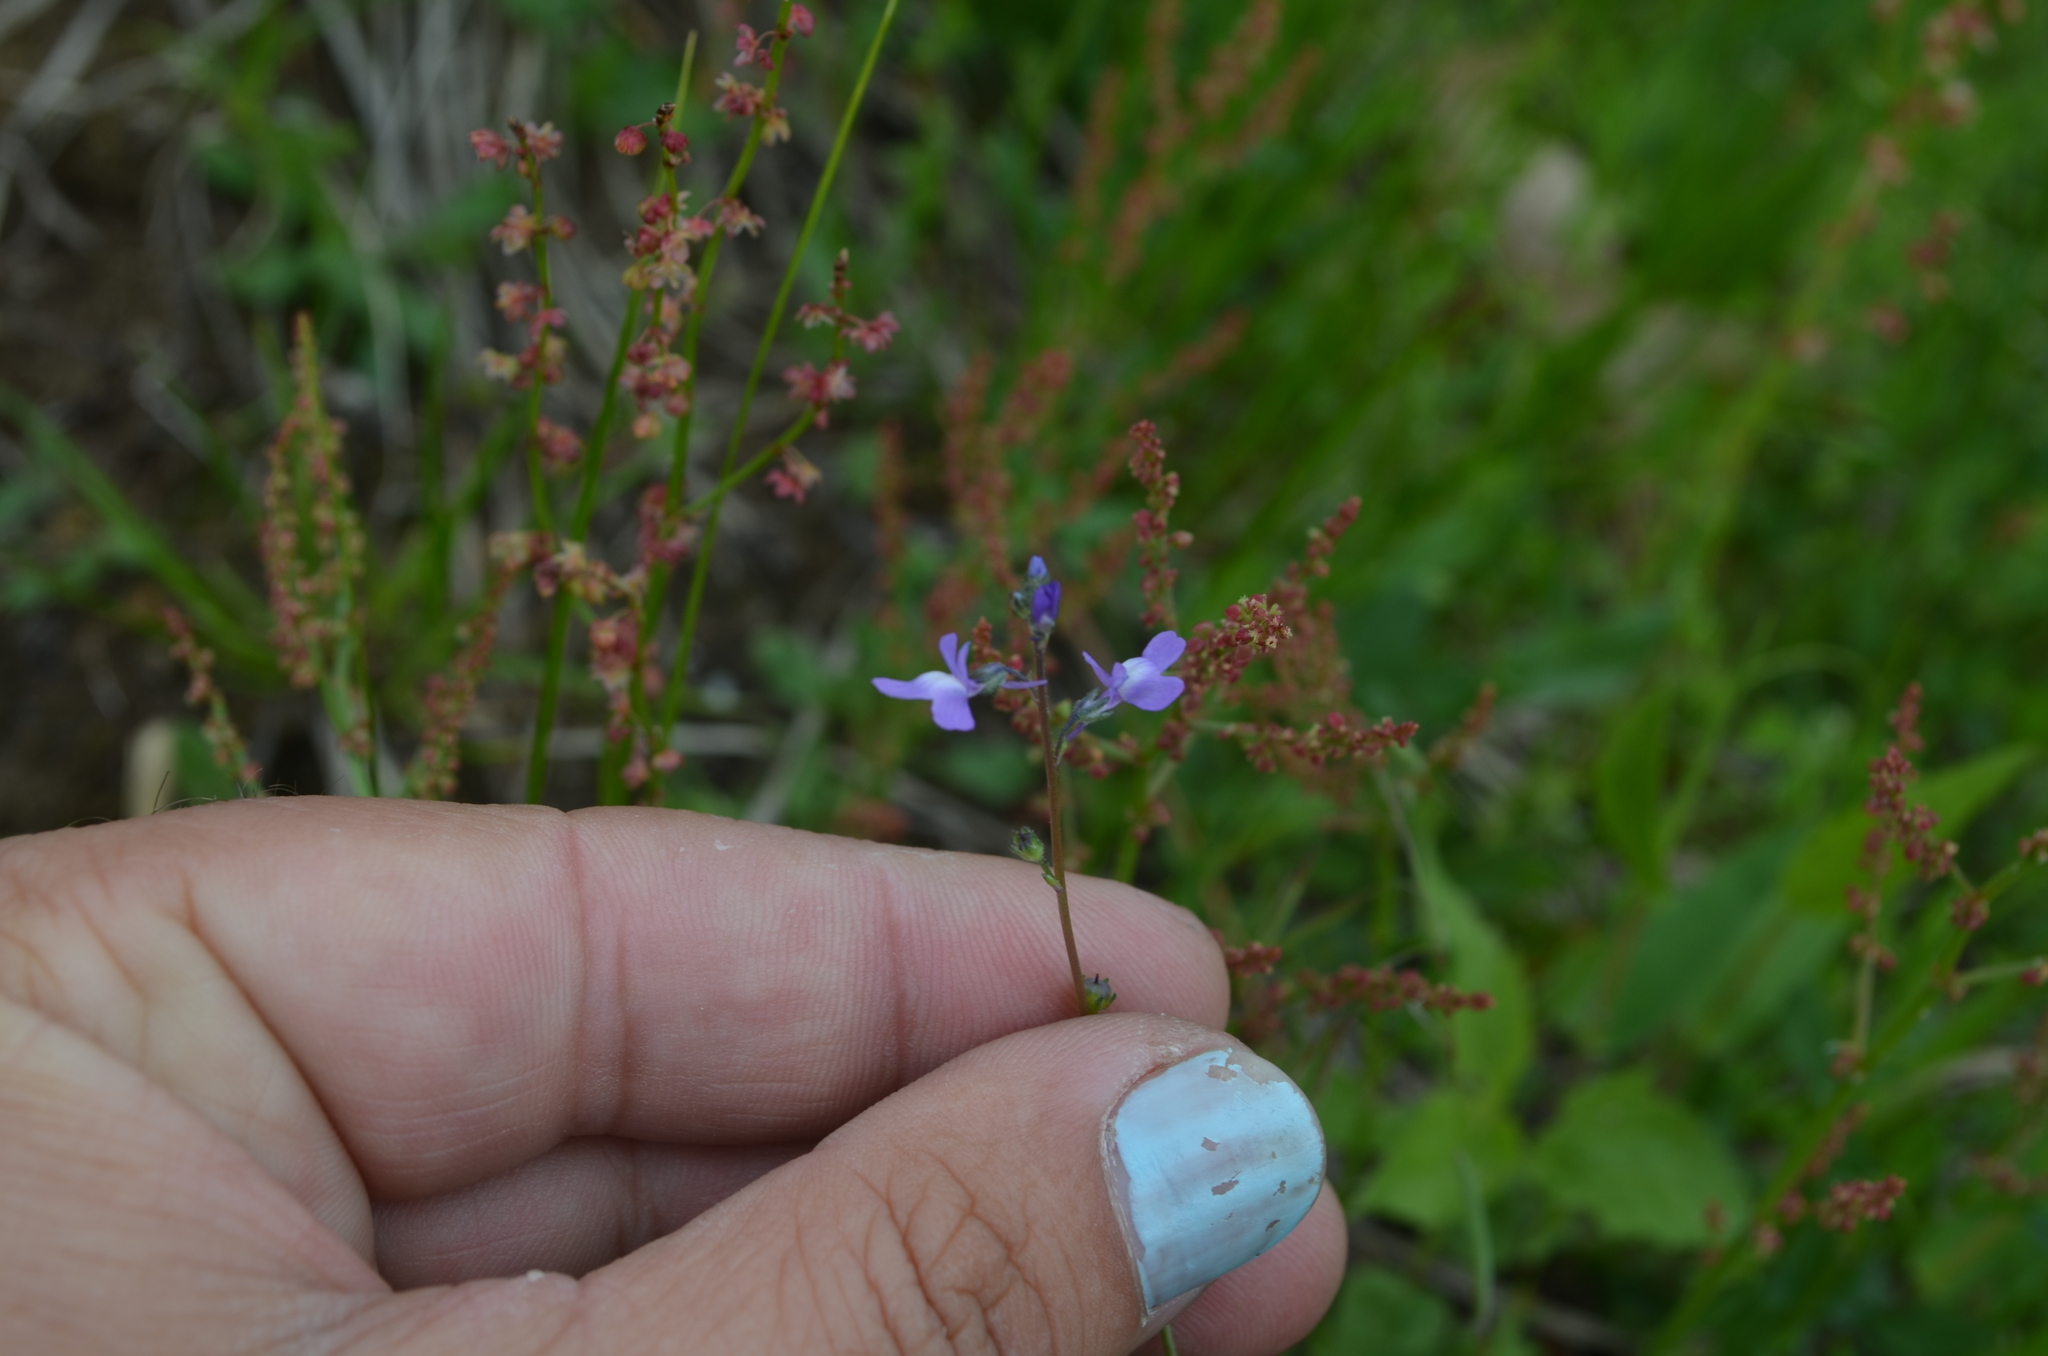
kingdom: Plantae
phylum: Tracheophyta
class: Magnoliopsida
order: Lamiales
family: Plantaginaceae
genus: Nuttallanthus
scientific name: Nuttallanthus canadensis
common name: Blue toadflax
